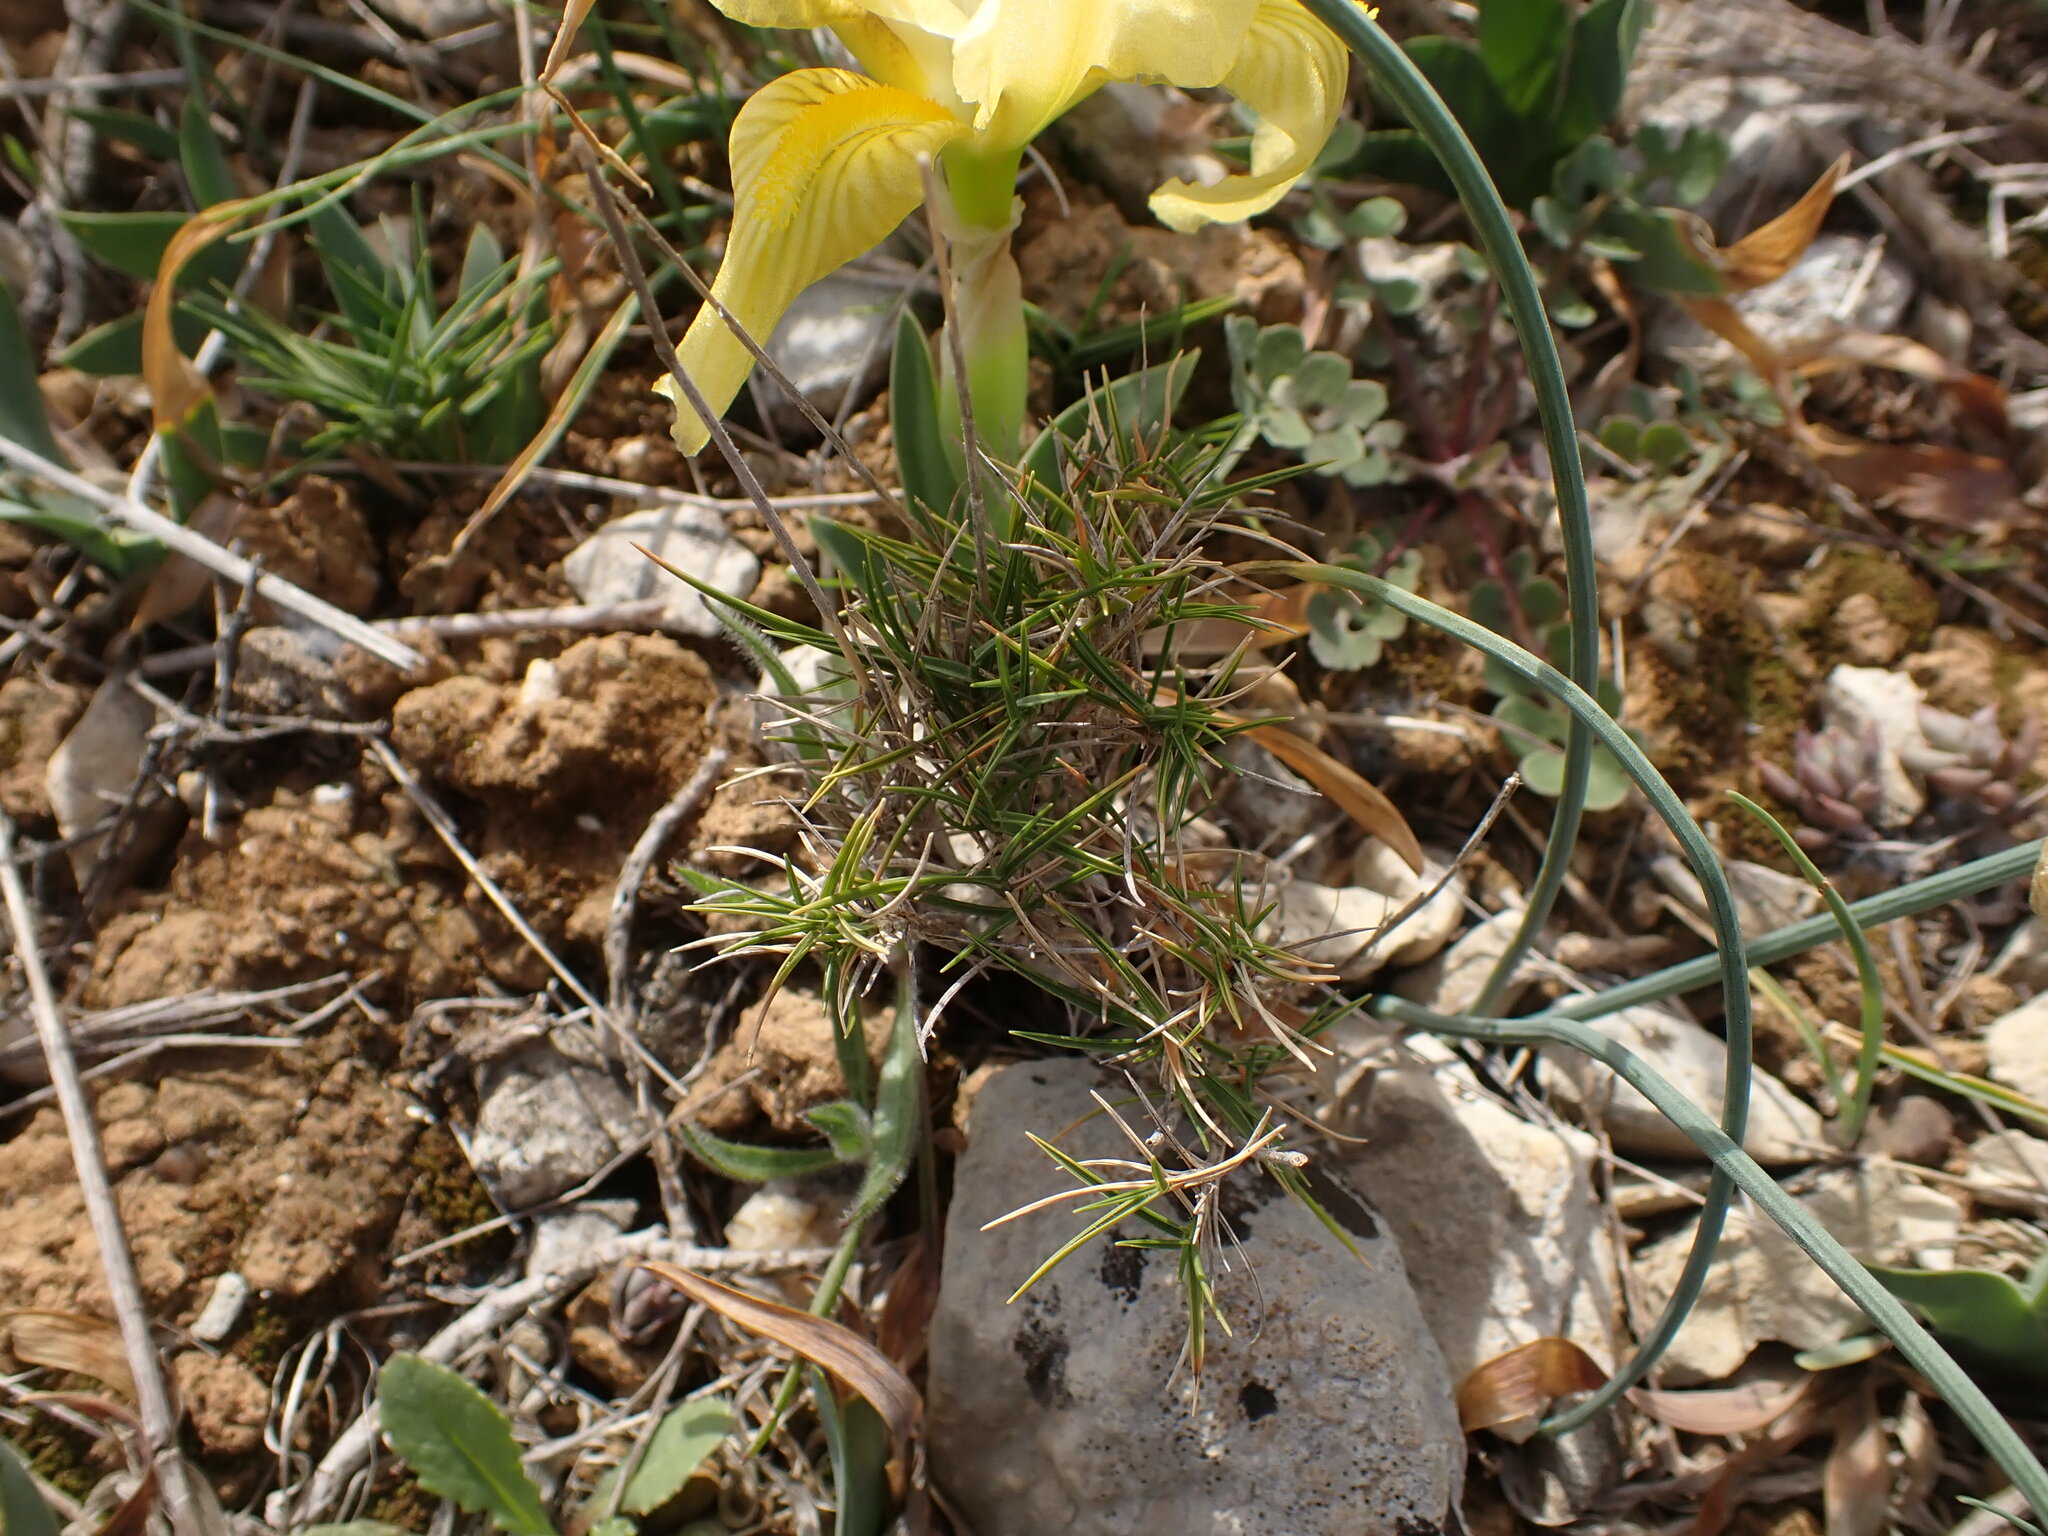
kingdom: Plantae
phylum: Tracheophyta
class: Liliopsida
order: Asparagales
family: Iridaceae
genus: Iris
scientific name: Iris lutescens
